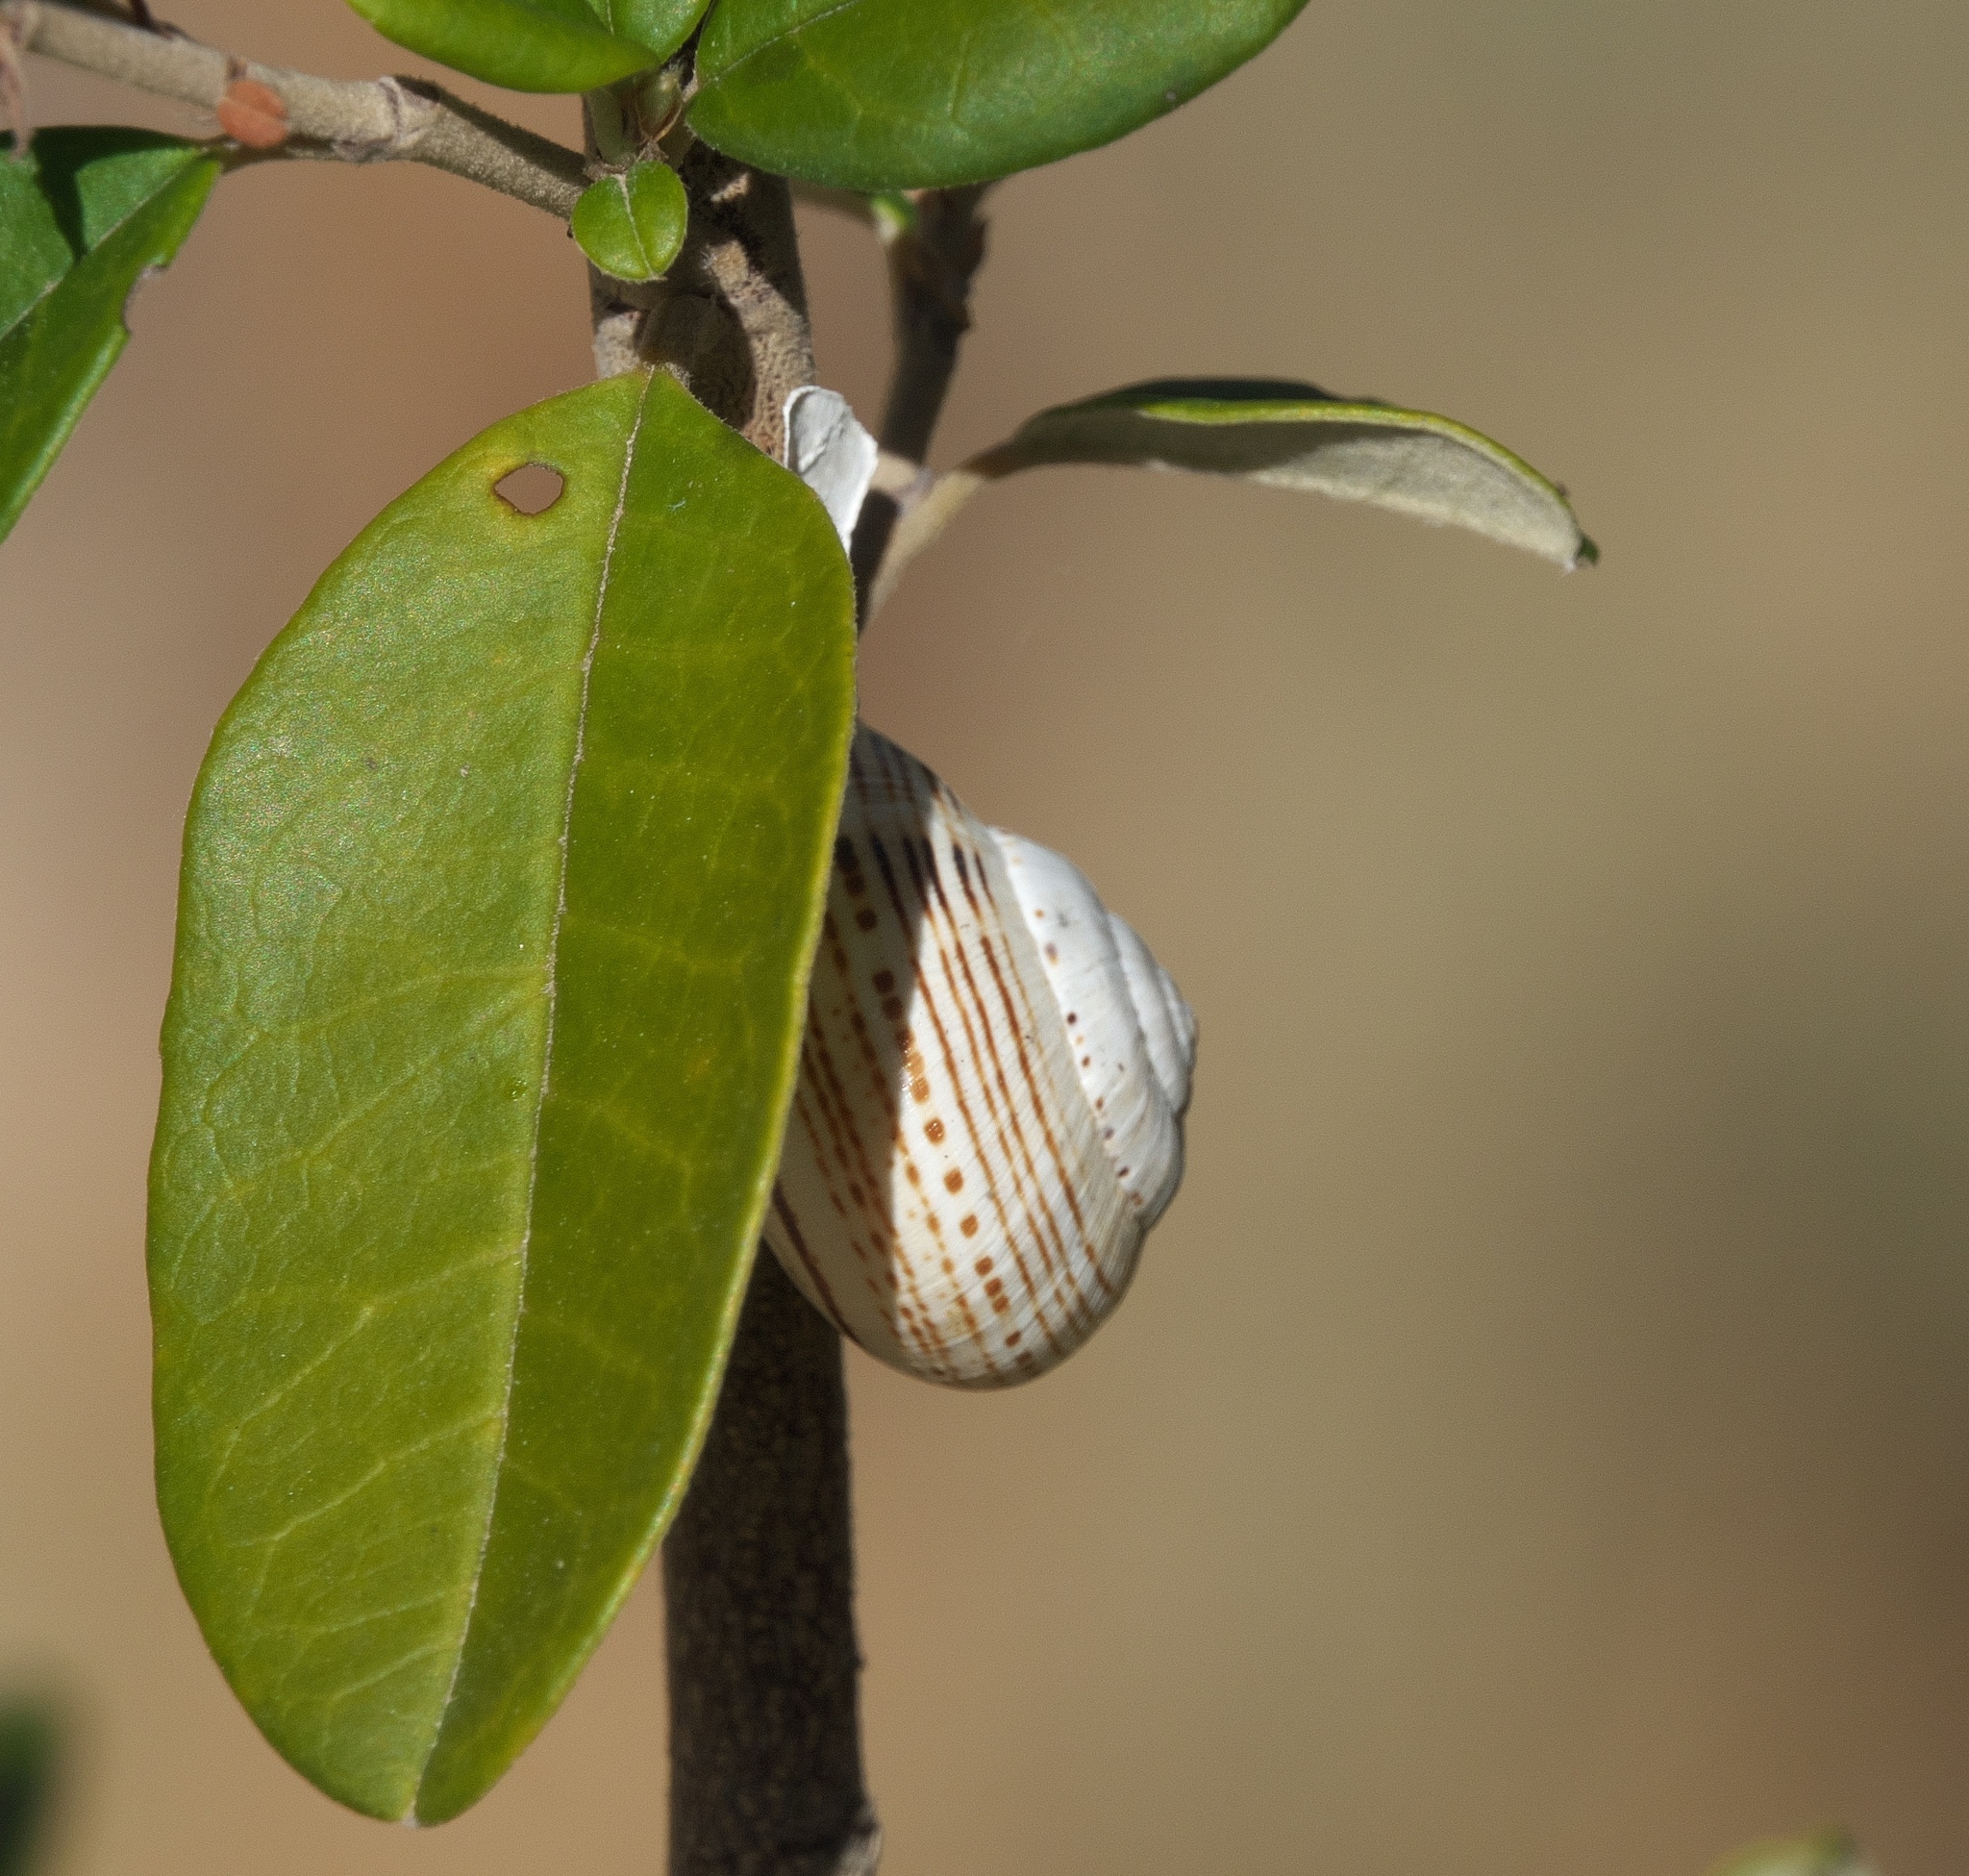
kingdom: Animalia
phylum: Mollusca
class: Gastropoda
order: Stylommatophora
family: Helicidae
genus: Theba
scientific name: Theba pisana
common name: White snail
